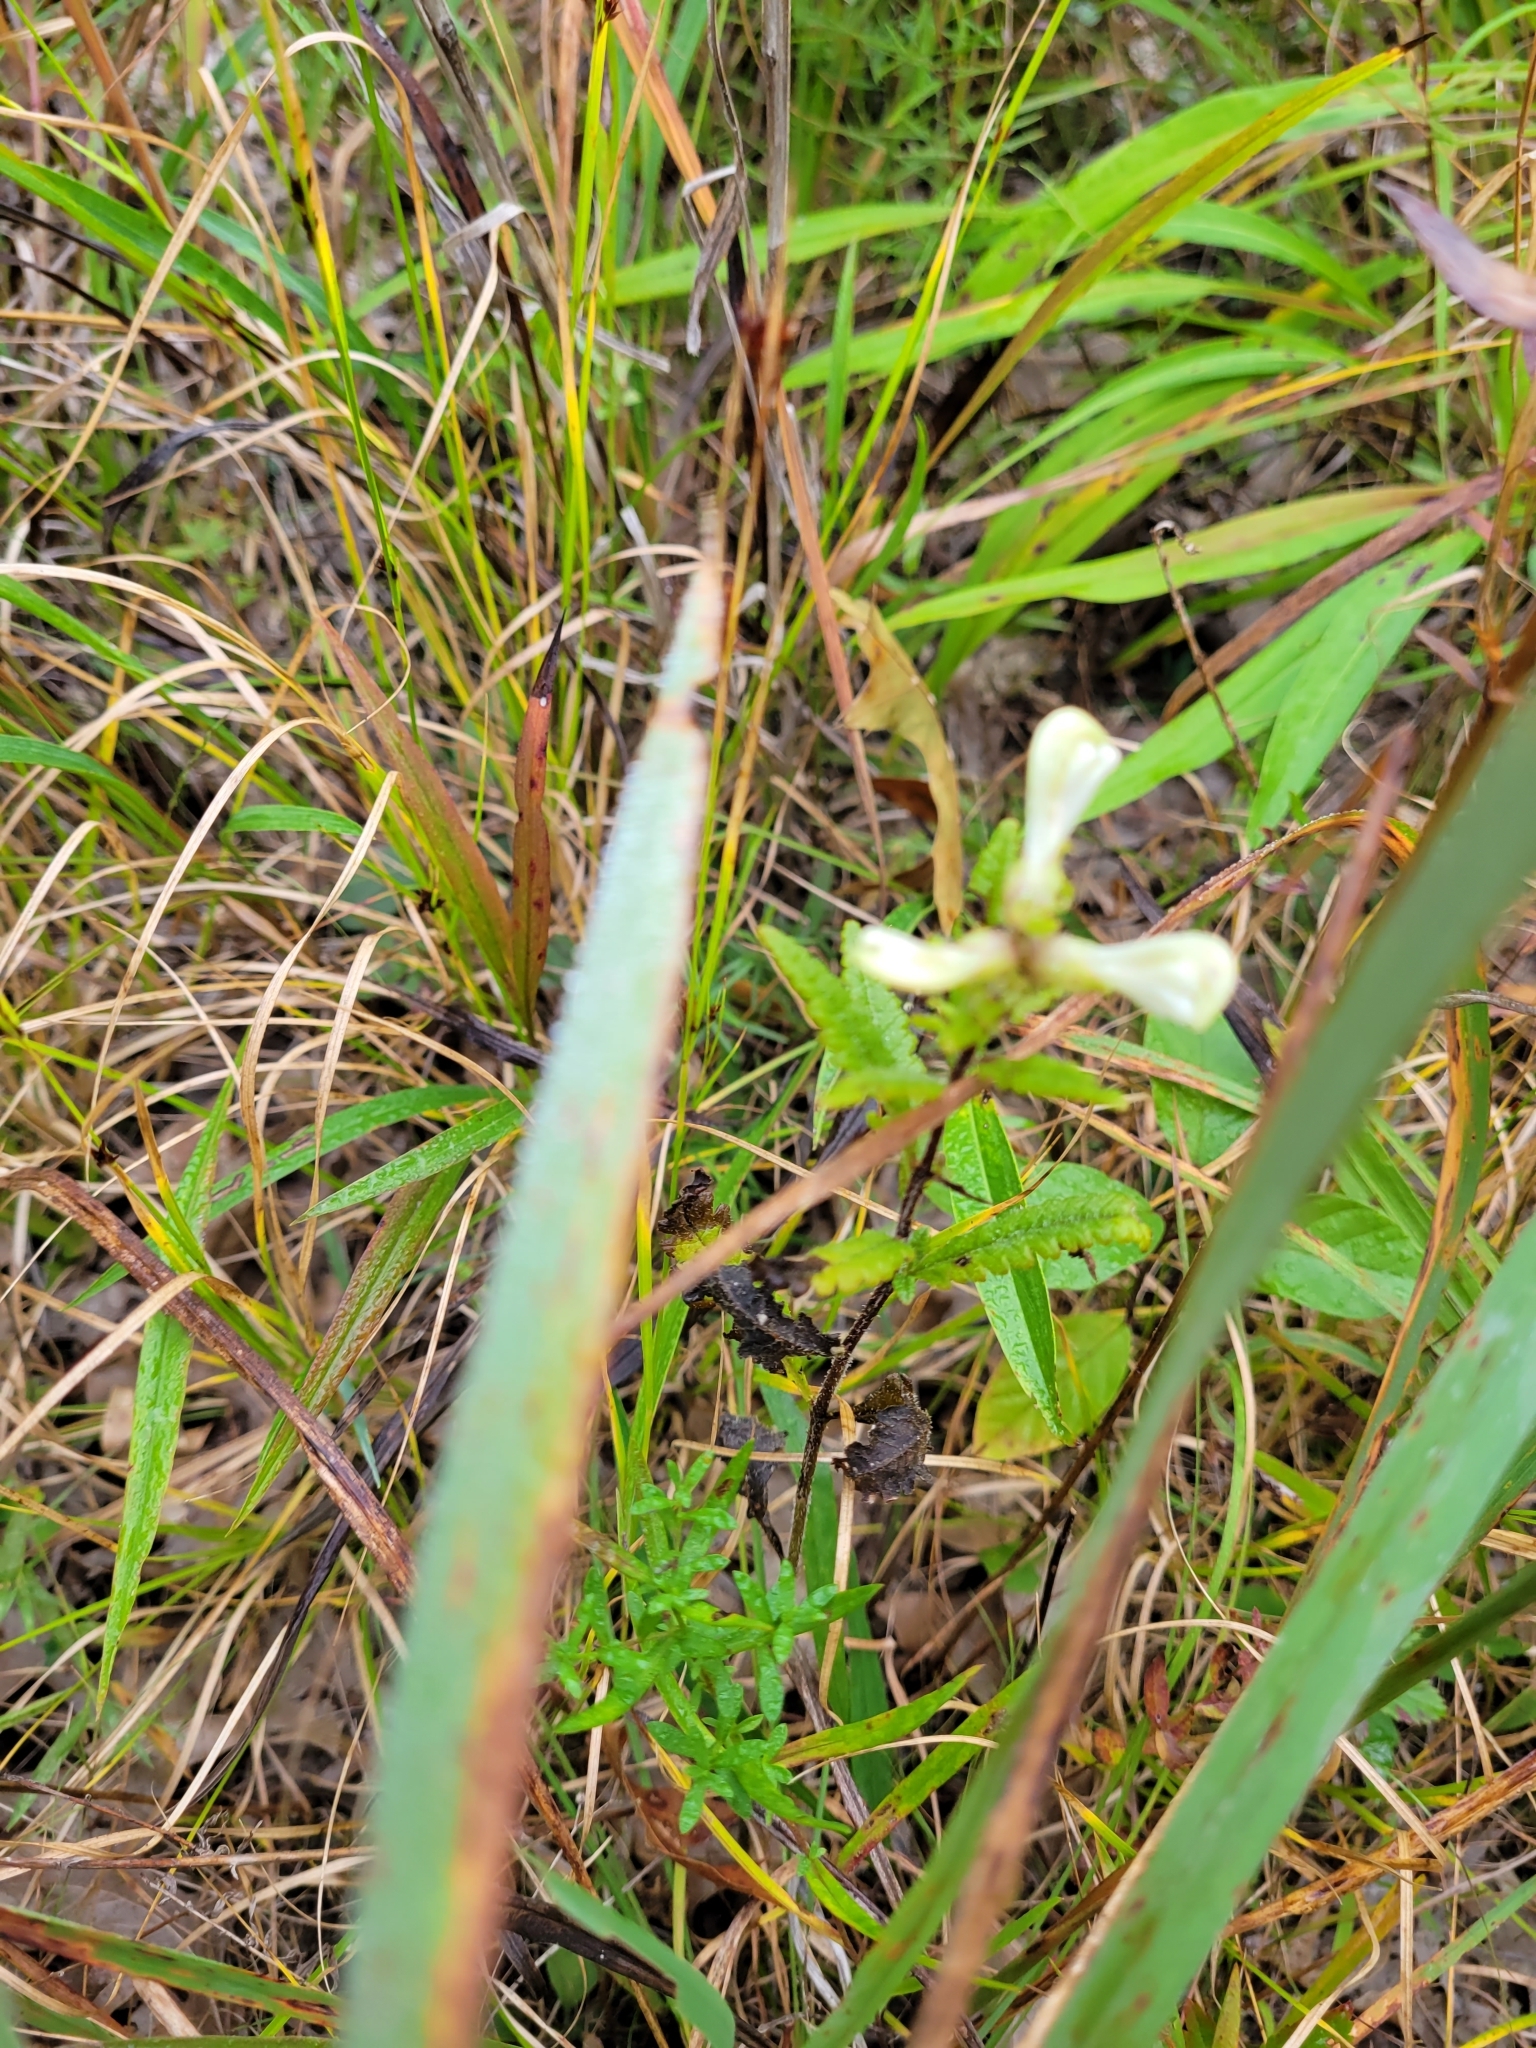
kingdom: Plantae
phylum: Tracheophyta
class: Magnoliopsida
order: Lamiales
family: Orobanchaceae
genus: Pedicularis
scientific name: Pedicularis lanceolata
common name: Swamp lousewort
